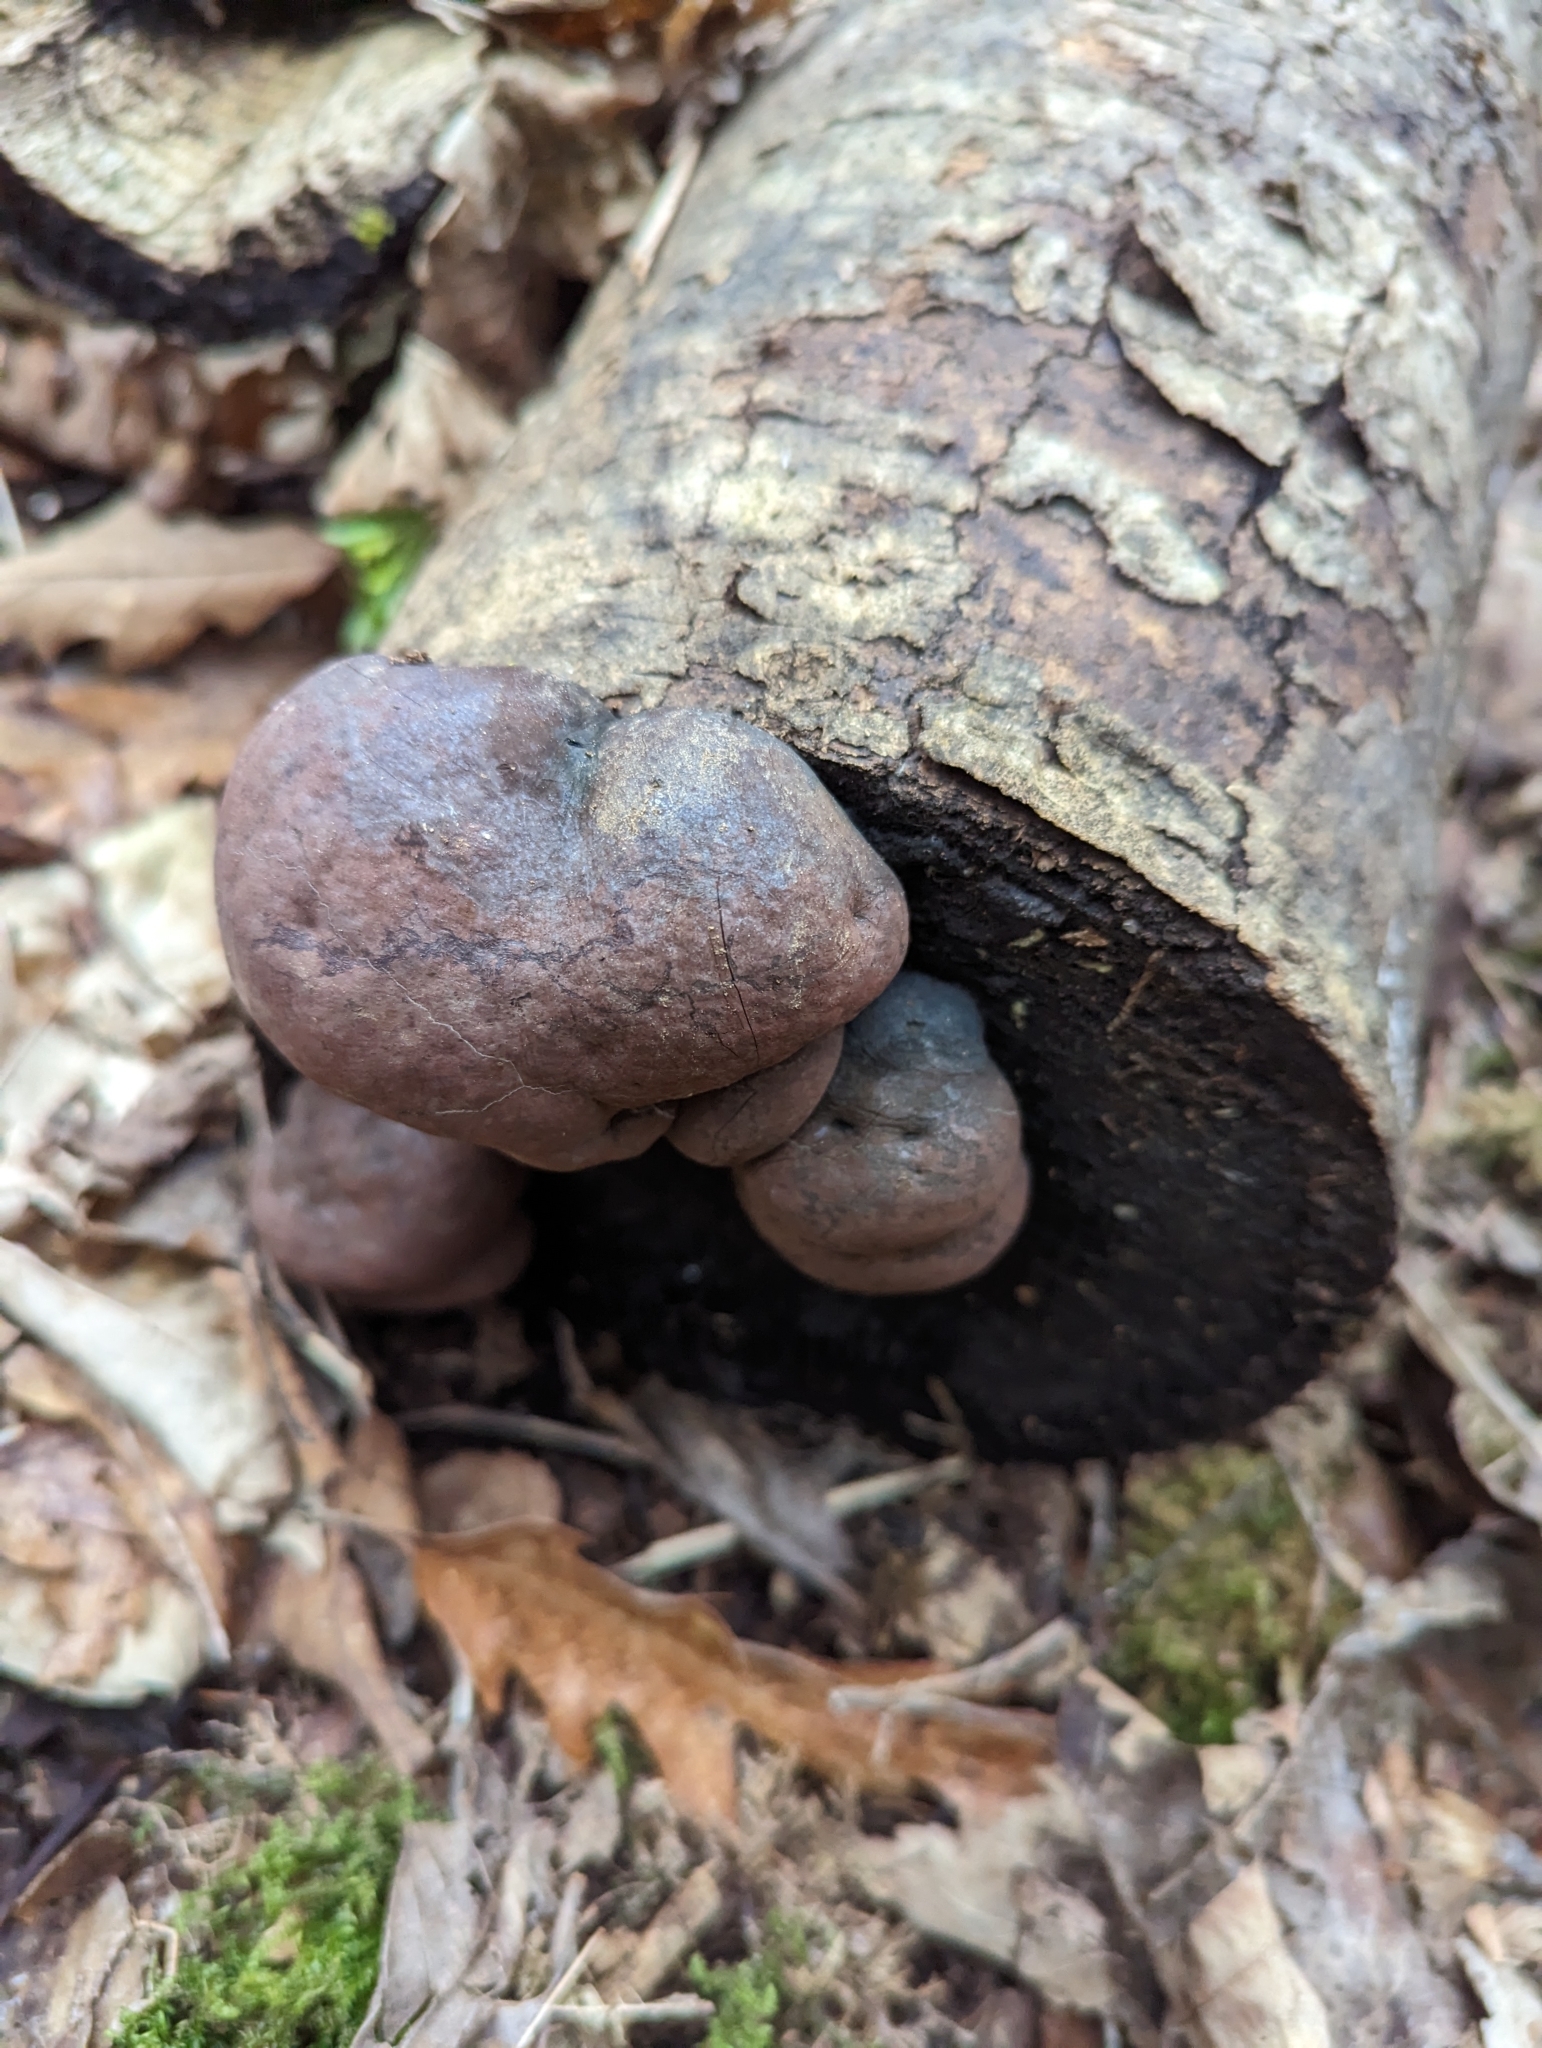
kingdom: Fungi
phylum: Ascomycota
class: Sordariomycetes
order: Xylariales
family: Hypoxylaceae
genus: Daldinia
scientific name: Daldinia concentrica
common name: Cramp balls
